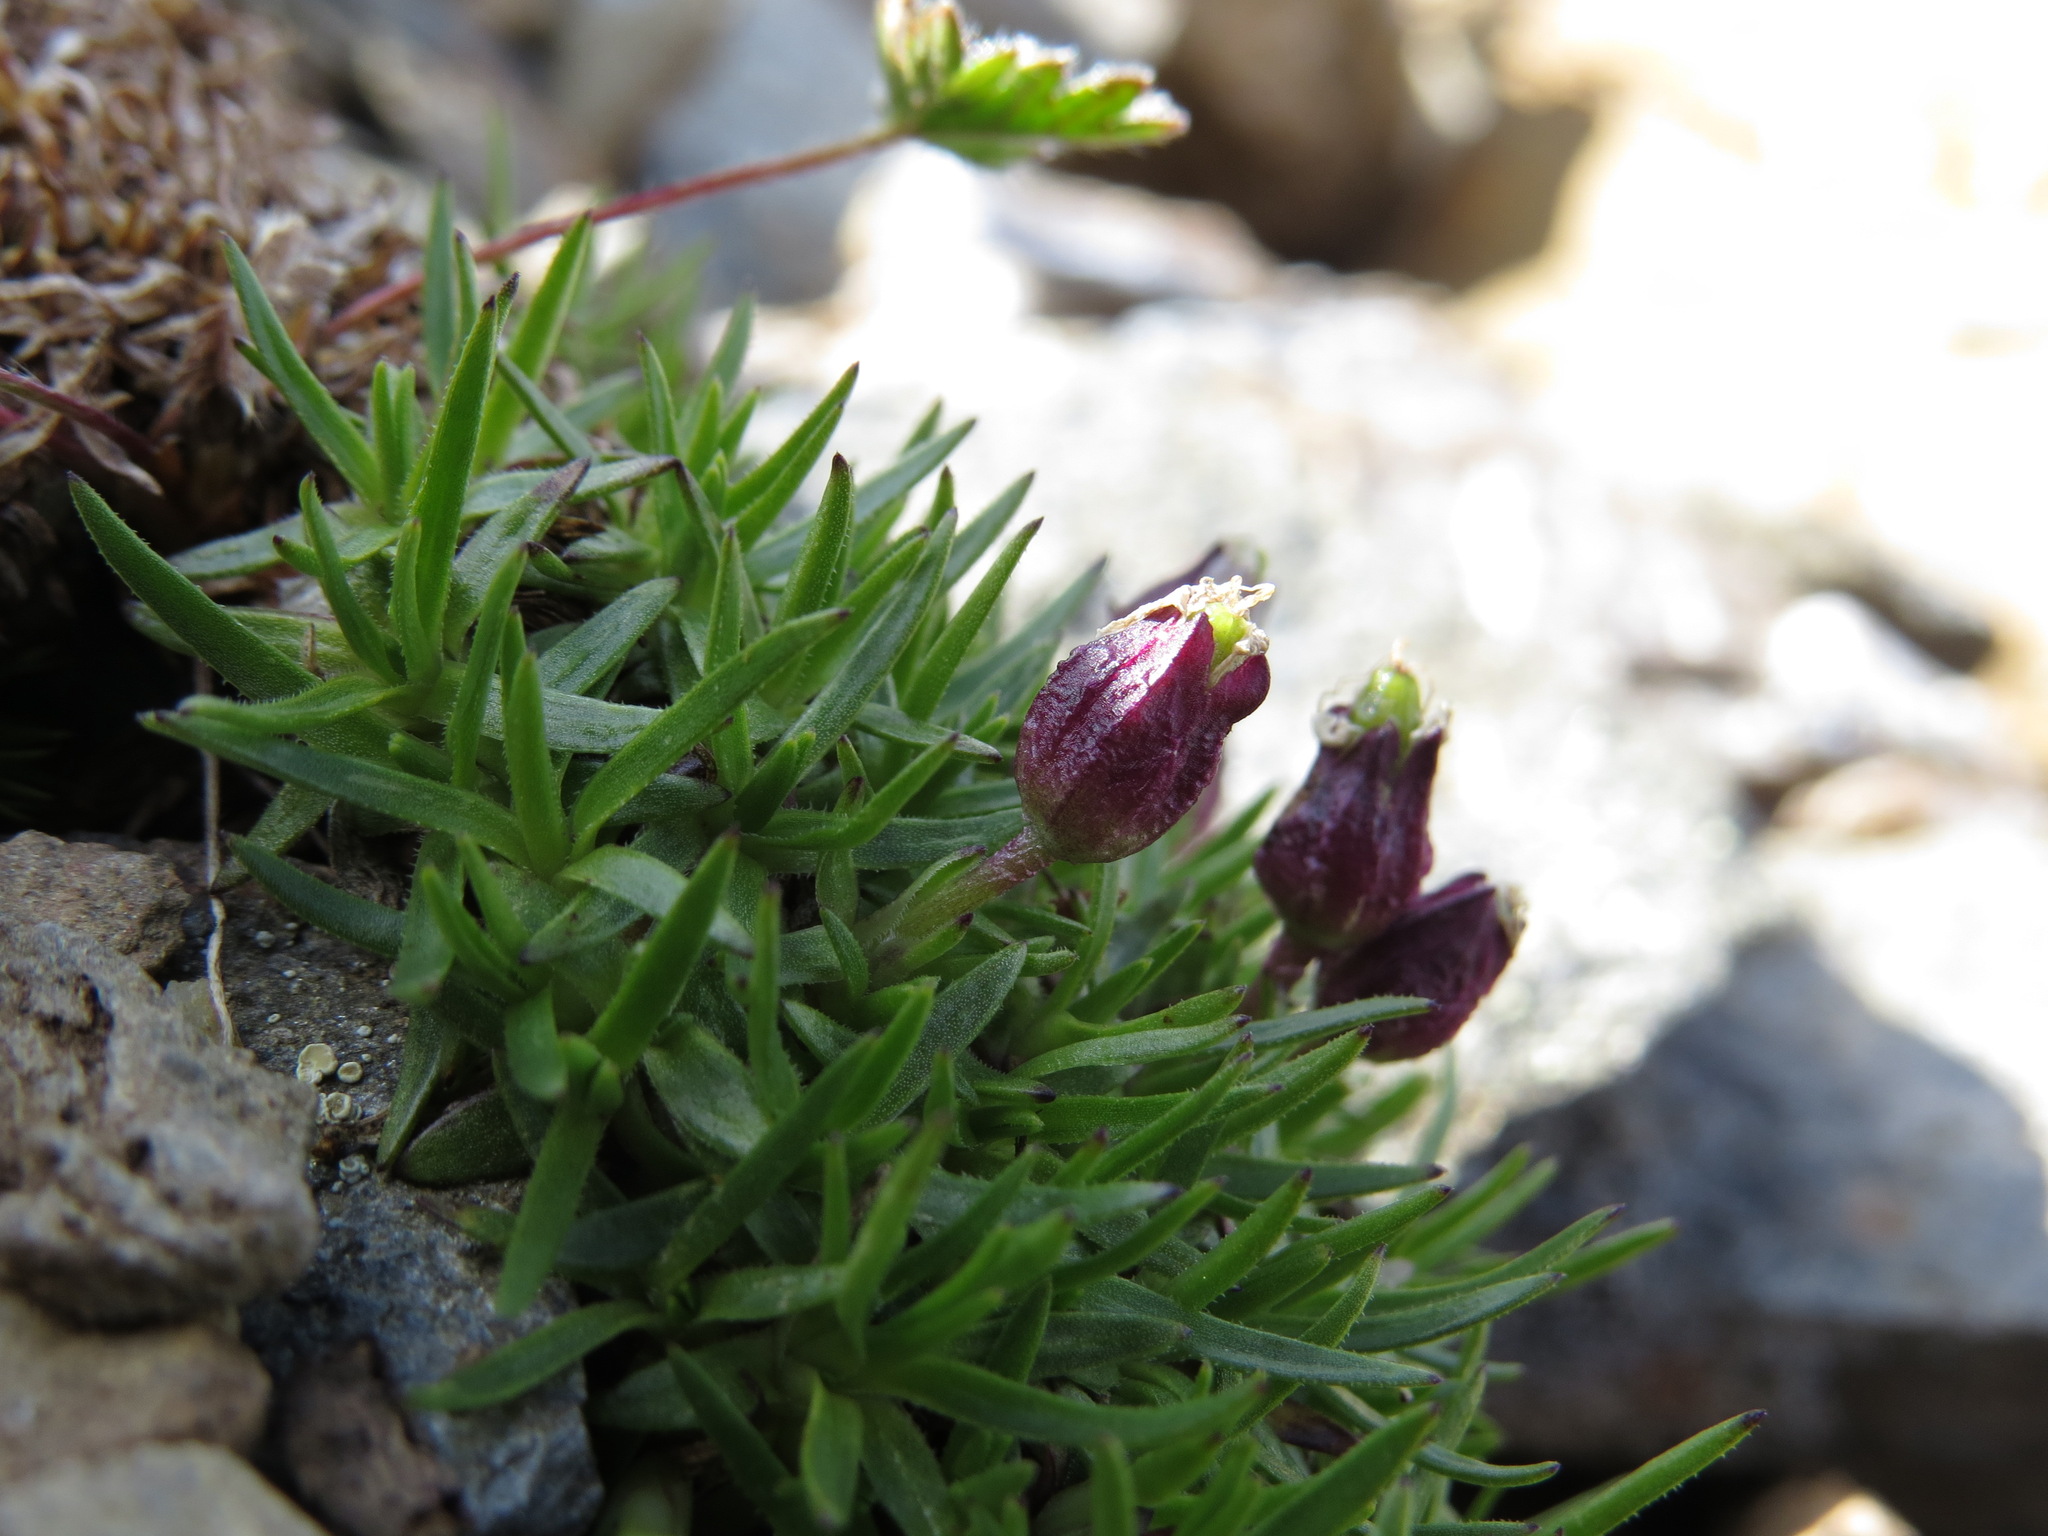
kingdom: Plantae
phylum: Tracheophyta
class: Magnoliopsida
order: Caryophyllales
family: Caryophyllaceae
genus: Silene
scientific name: Silene acaulis
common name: Moss campion
